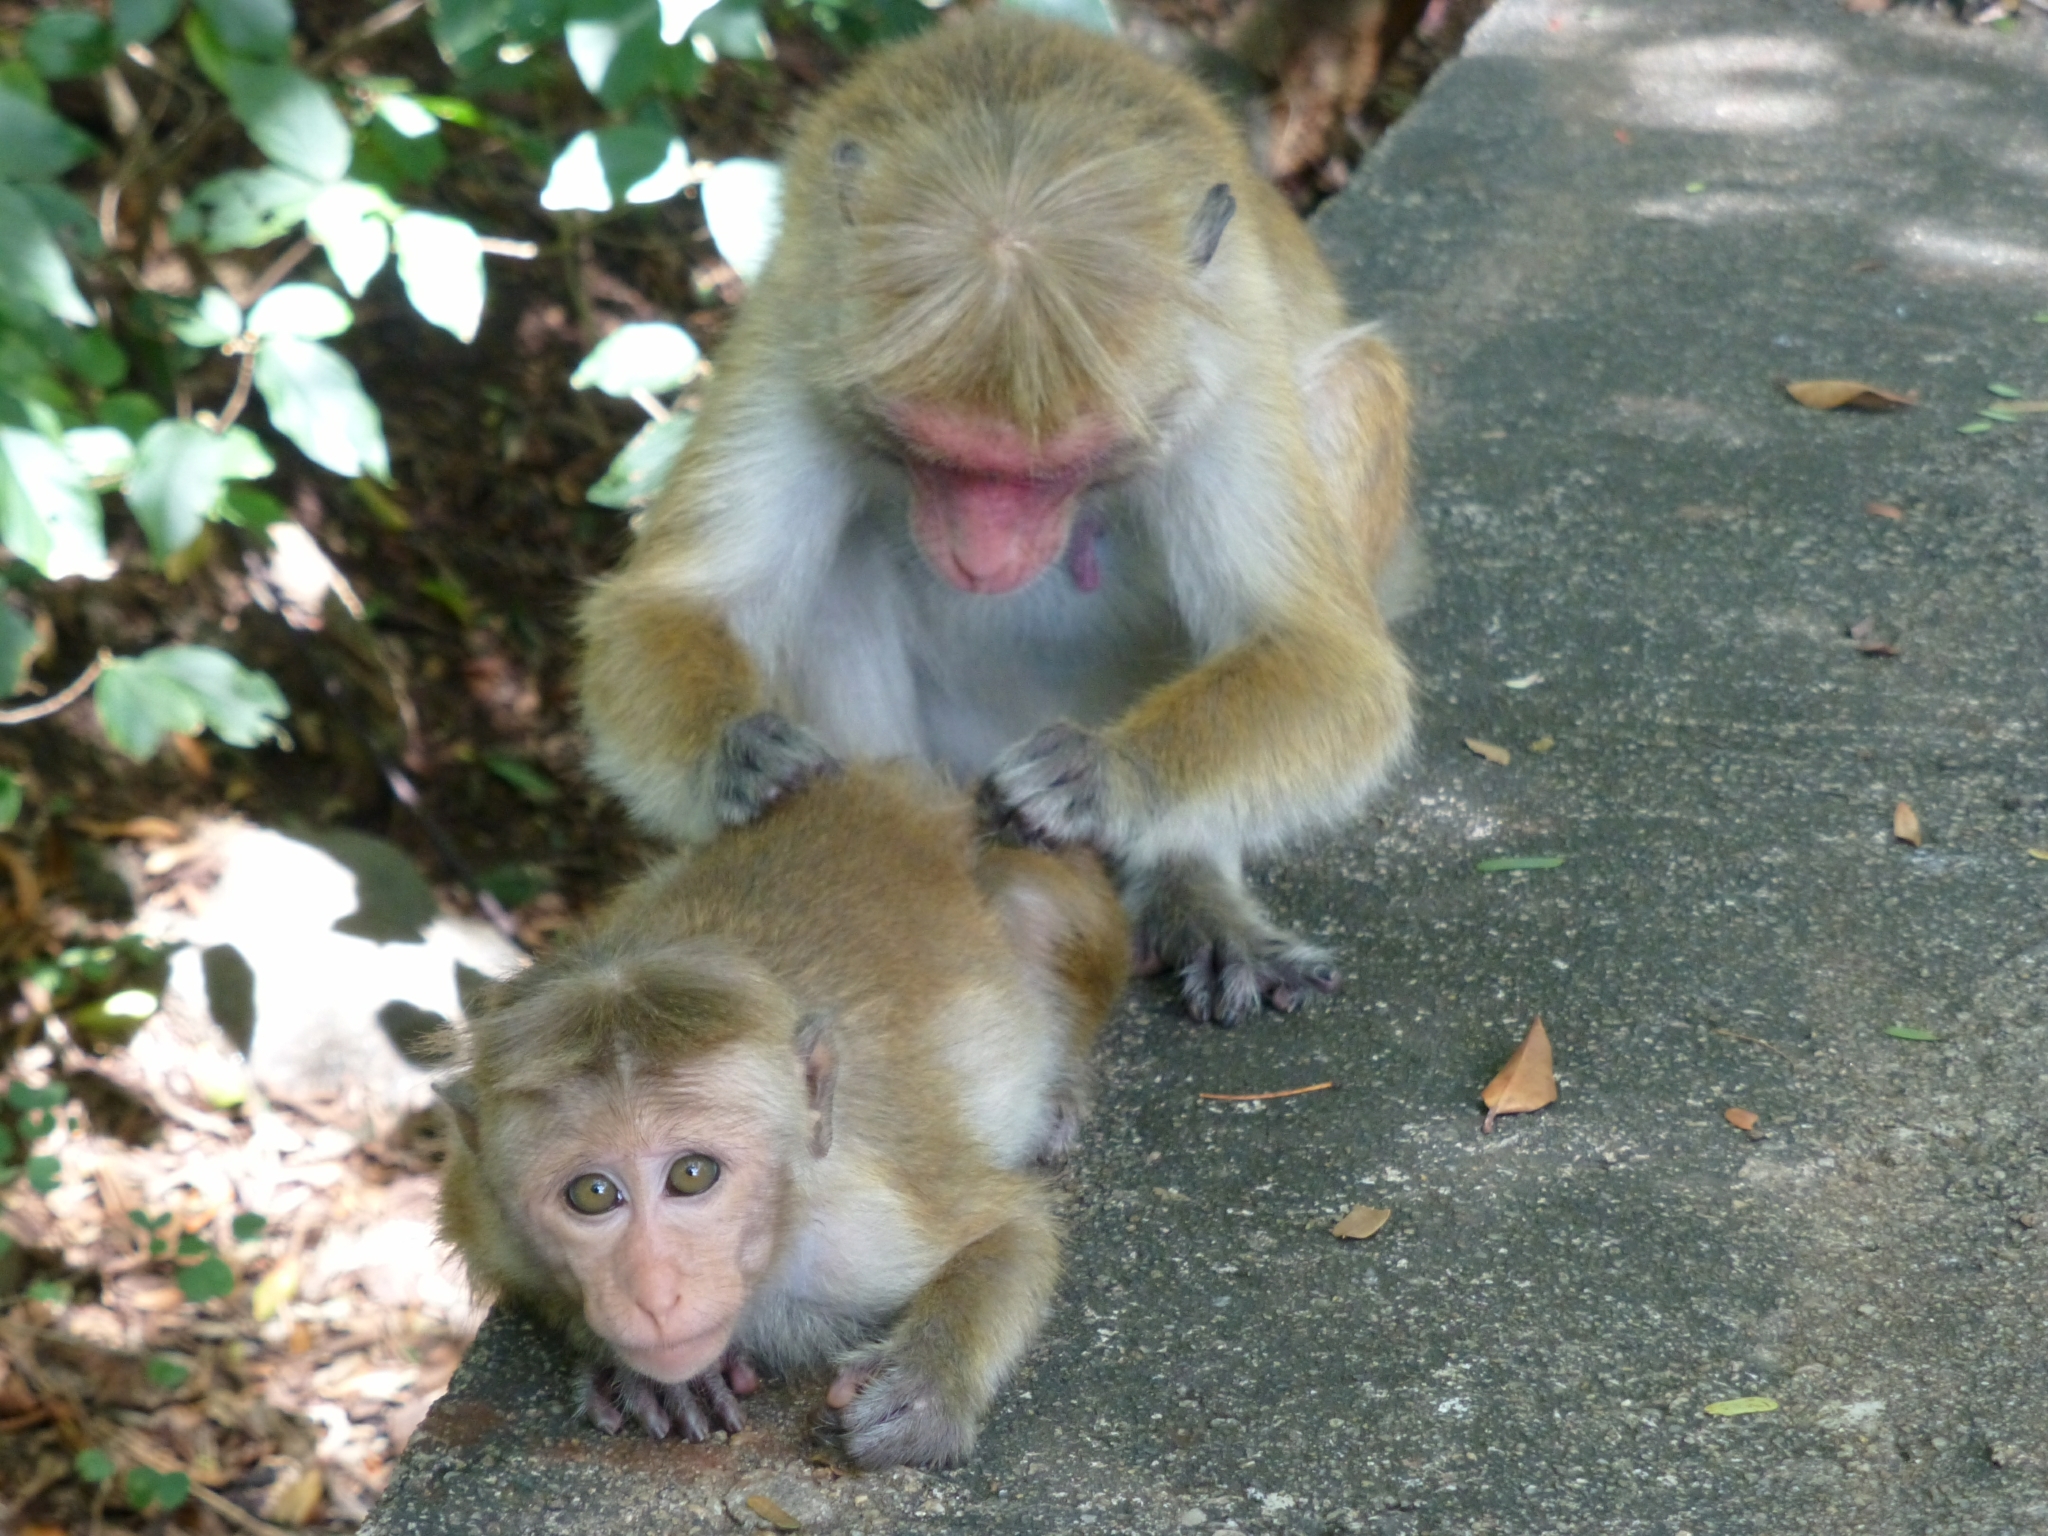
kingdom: Animalia
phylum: Chordata
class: Mammalia
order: Primates
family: Cercopithecidae
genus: Macaca
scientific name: Macaca sinica
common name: Toque macaque
